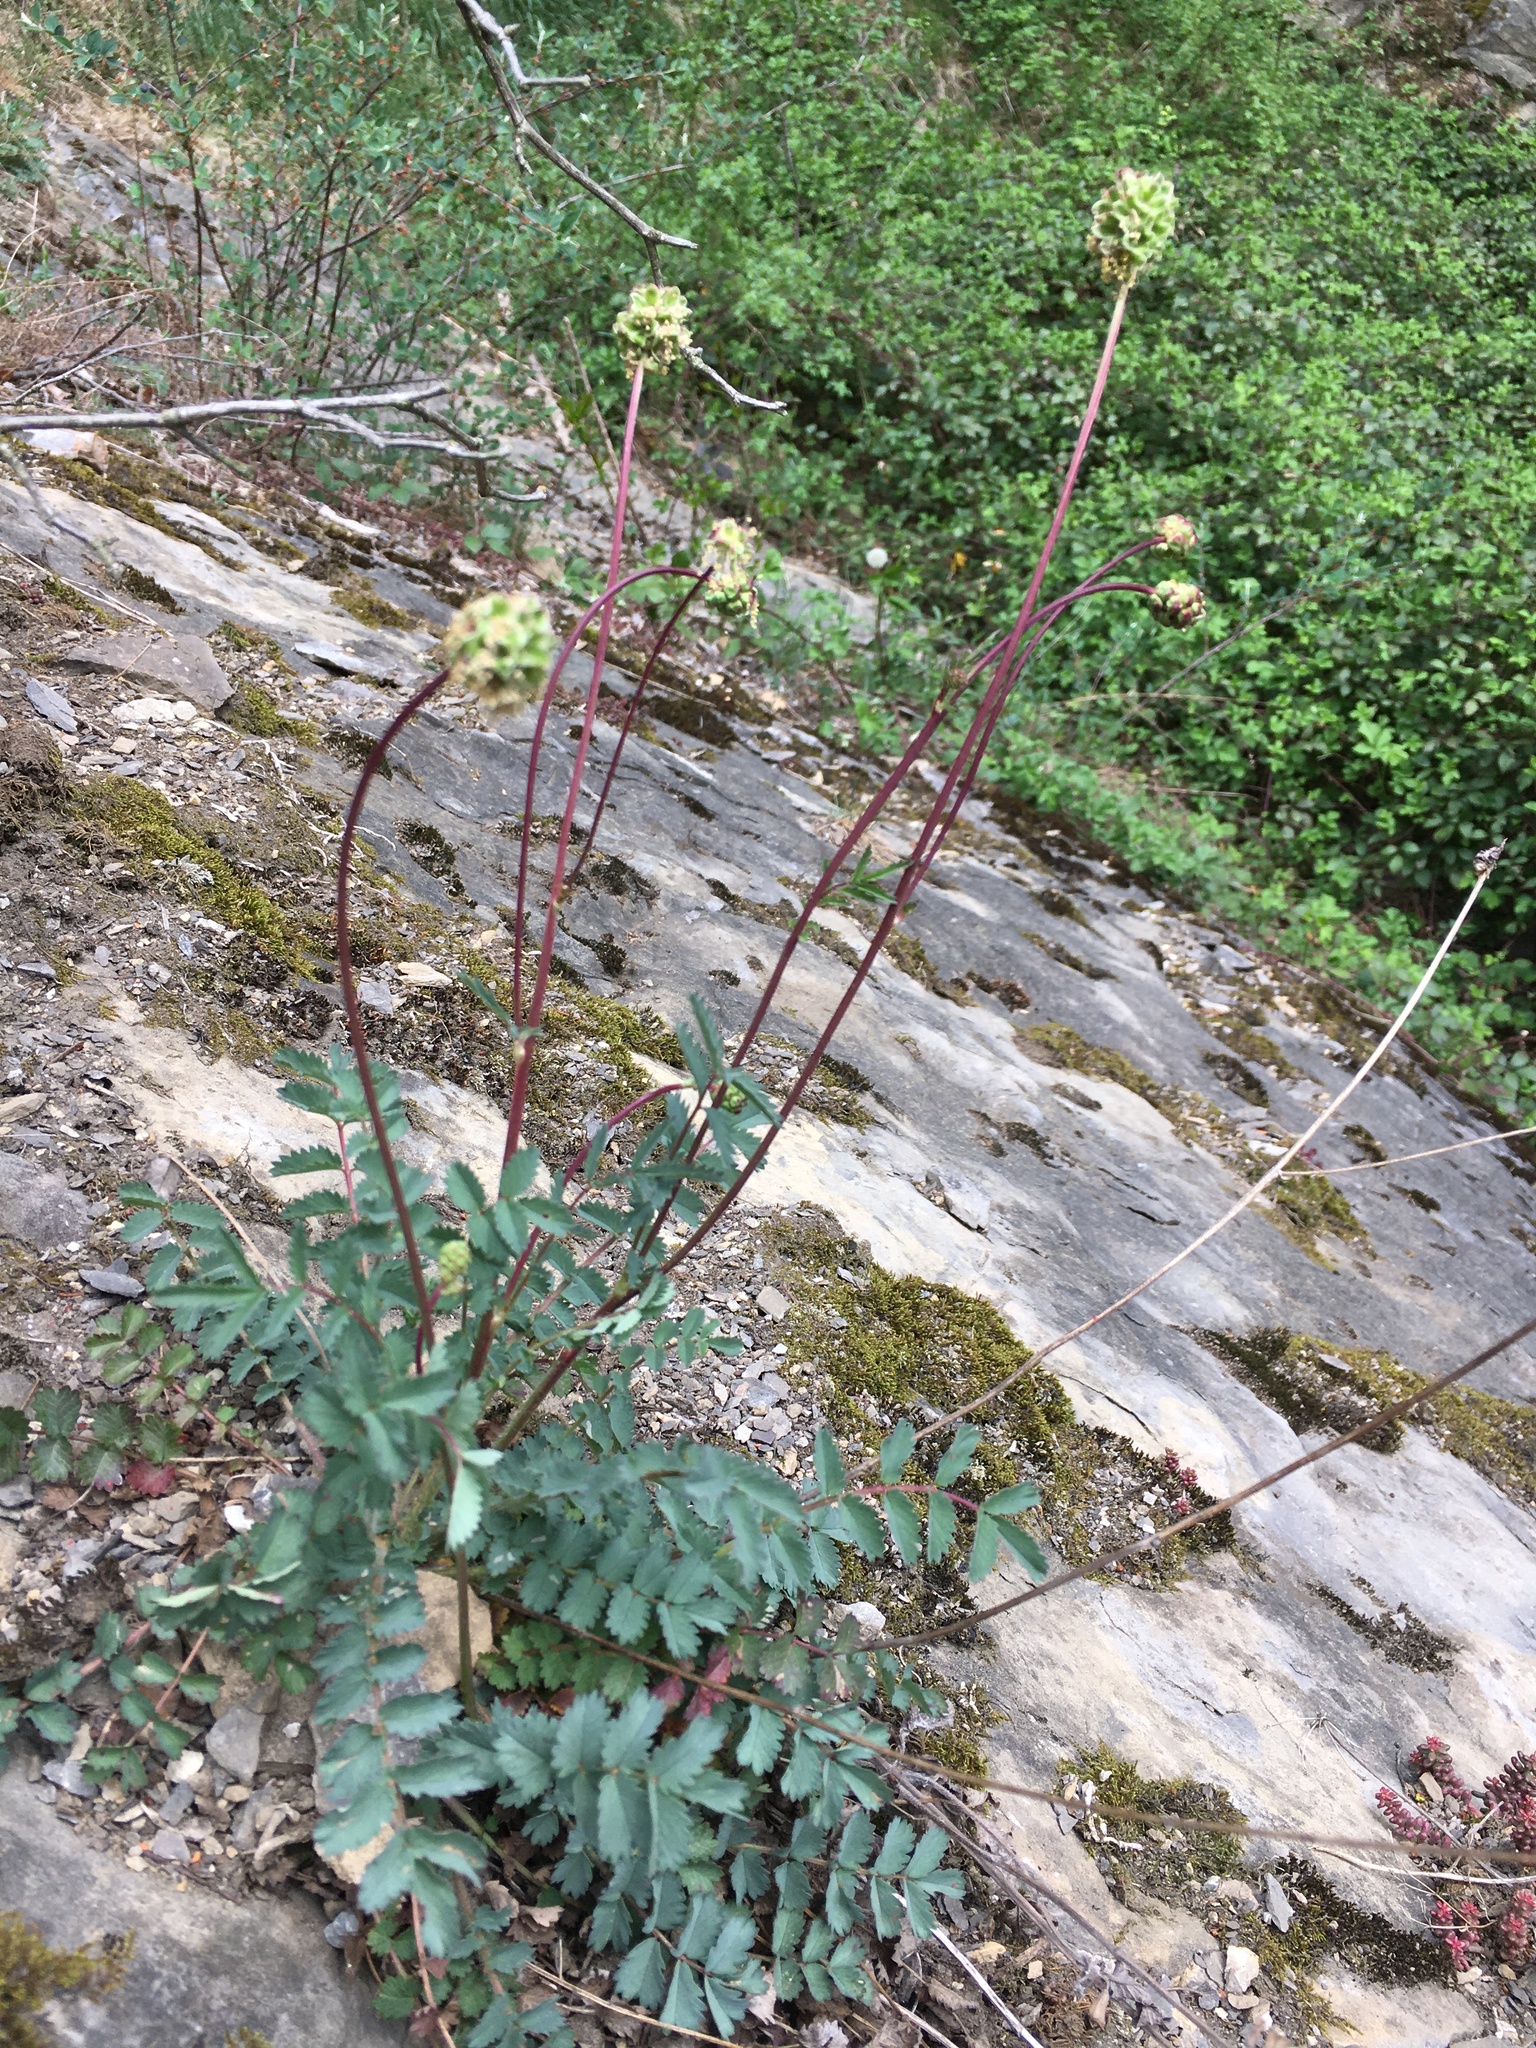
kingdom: Plantae
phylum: Tracheophyta
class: Magnoliopsida
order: Rosales
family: Rosaceae
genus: Poterium
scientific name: Poterium sanguisorba
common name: Salad burnet
